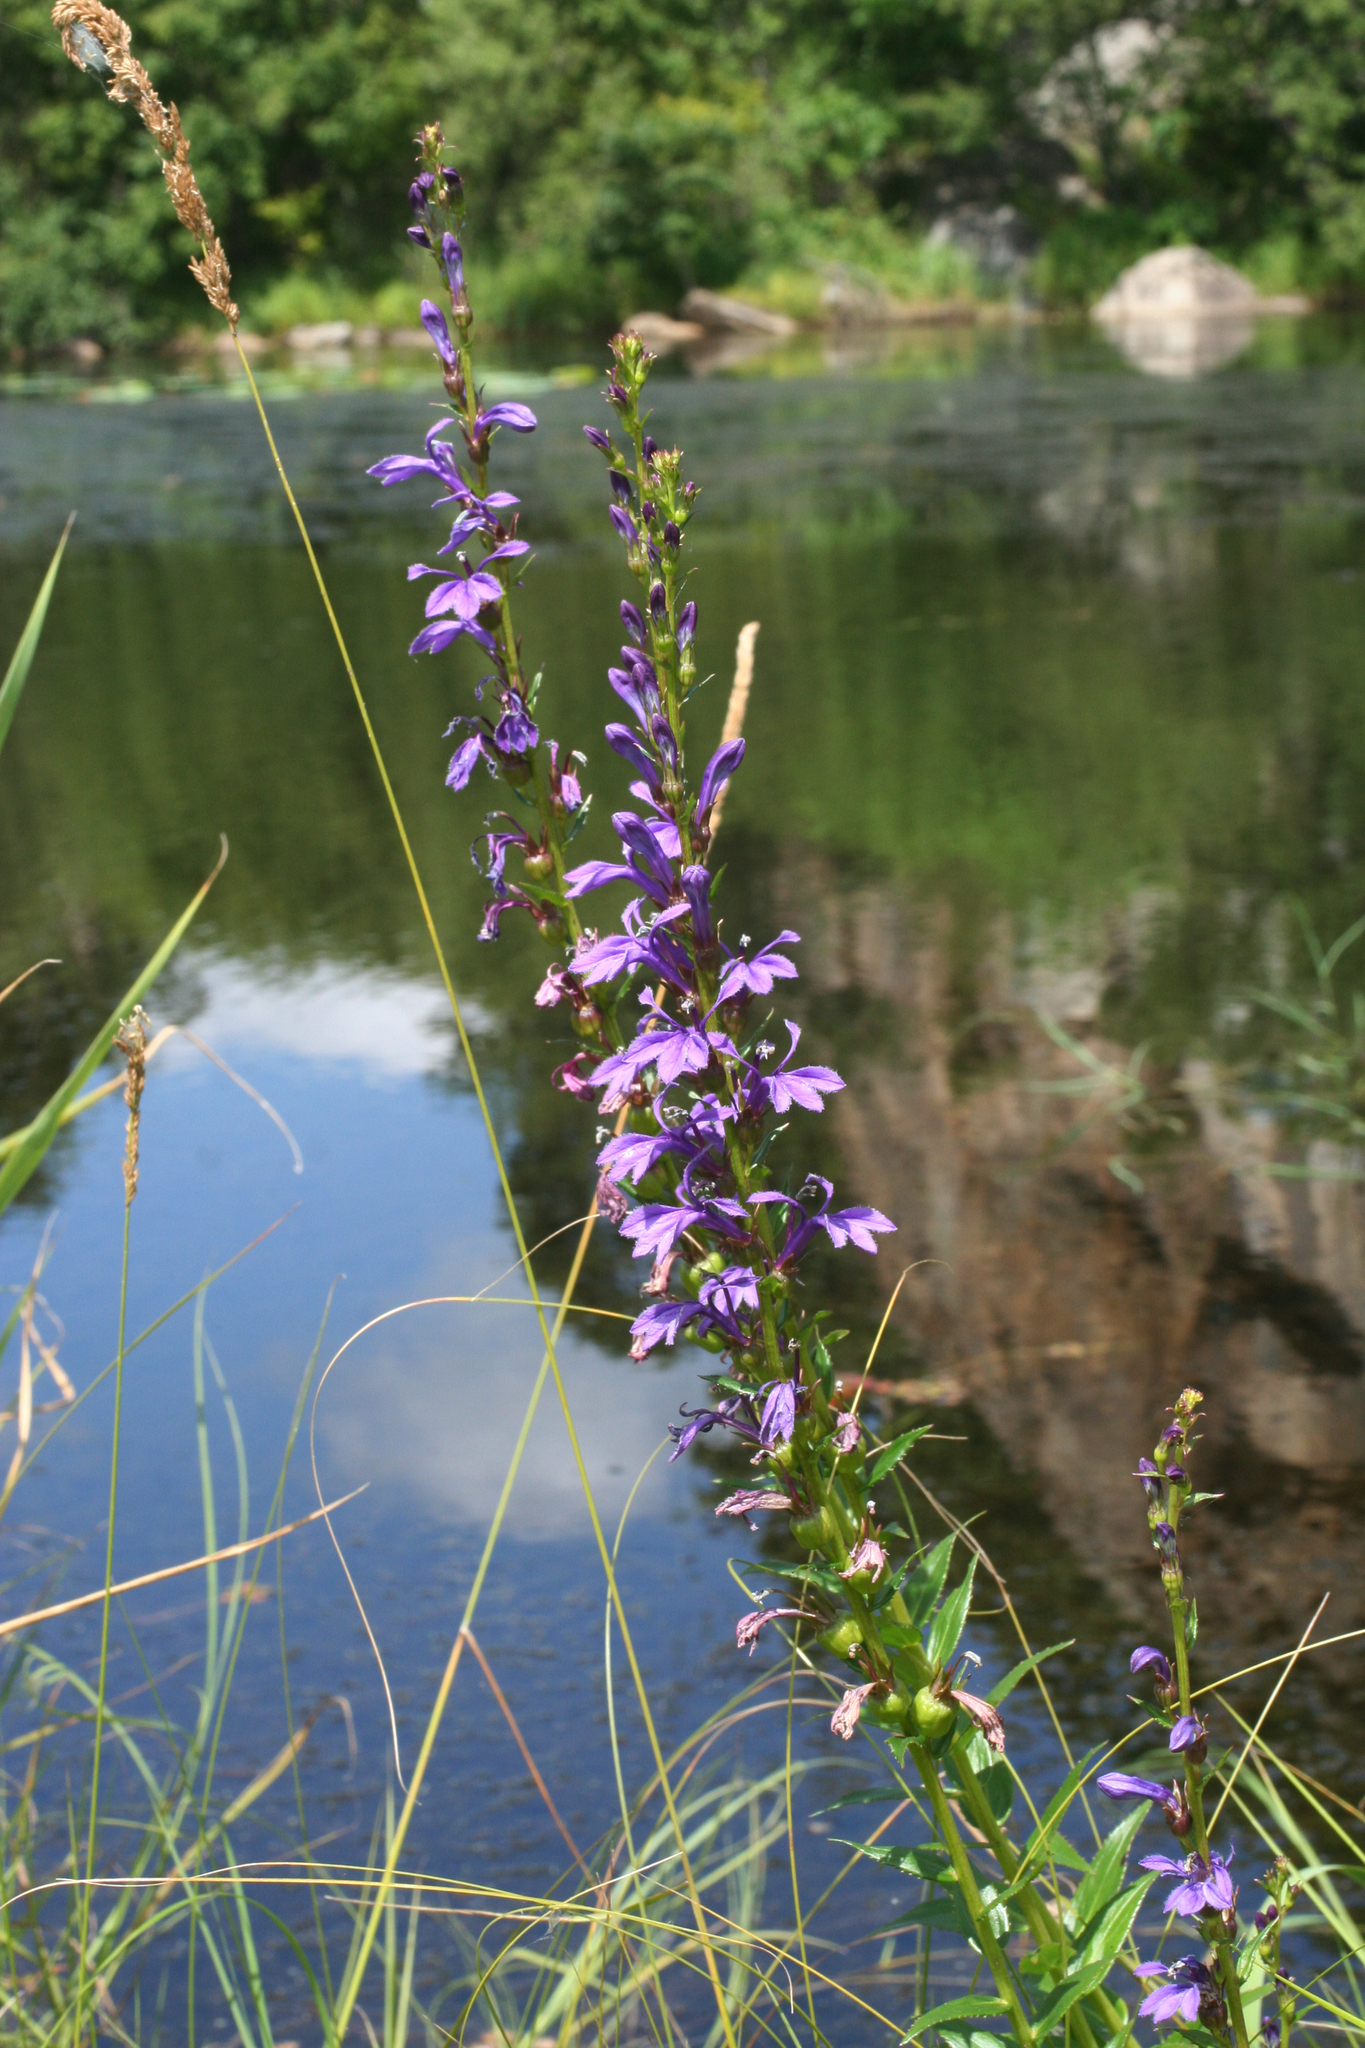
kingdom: Plantae
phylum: Tracheophyta
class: Magnoliopsida
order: Asterales
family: Campanulaceae
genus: Lobelia
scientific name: Lobelia sessilifolia
